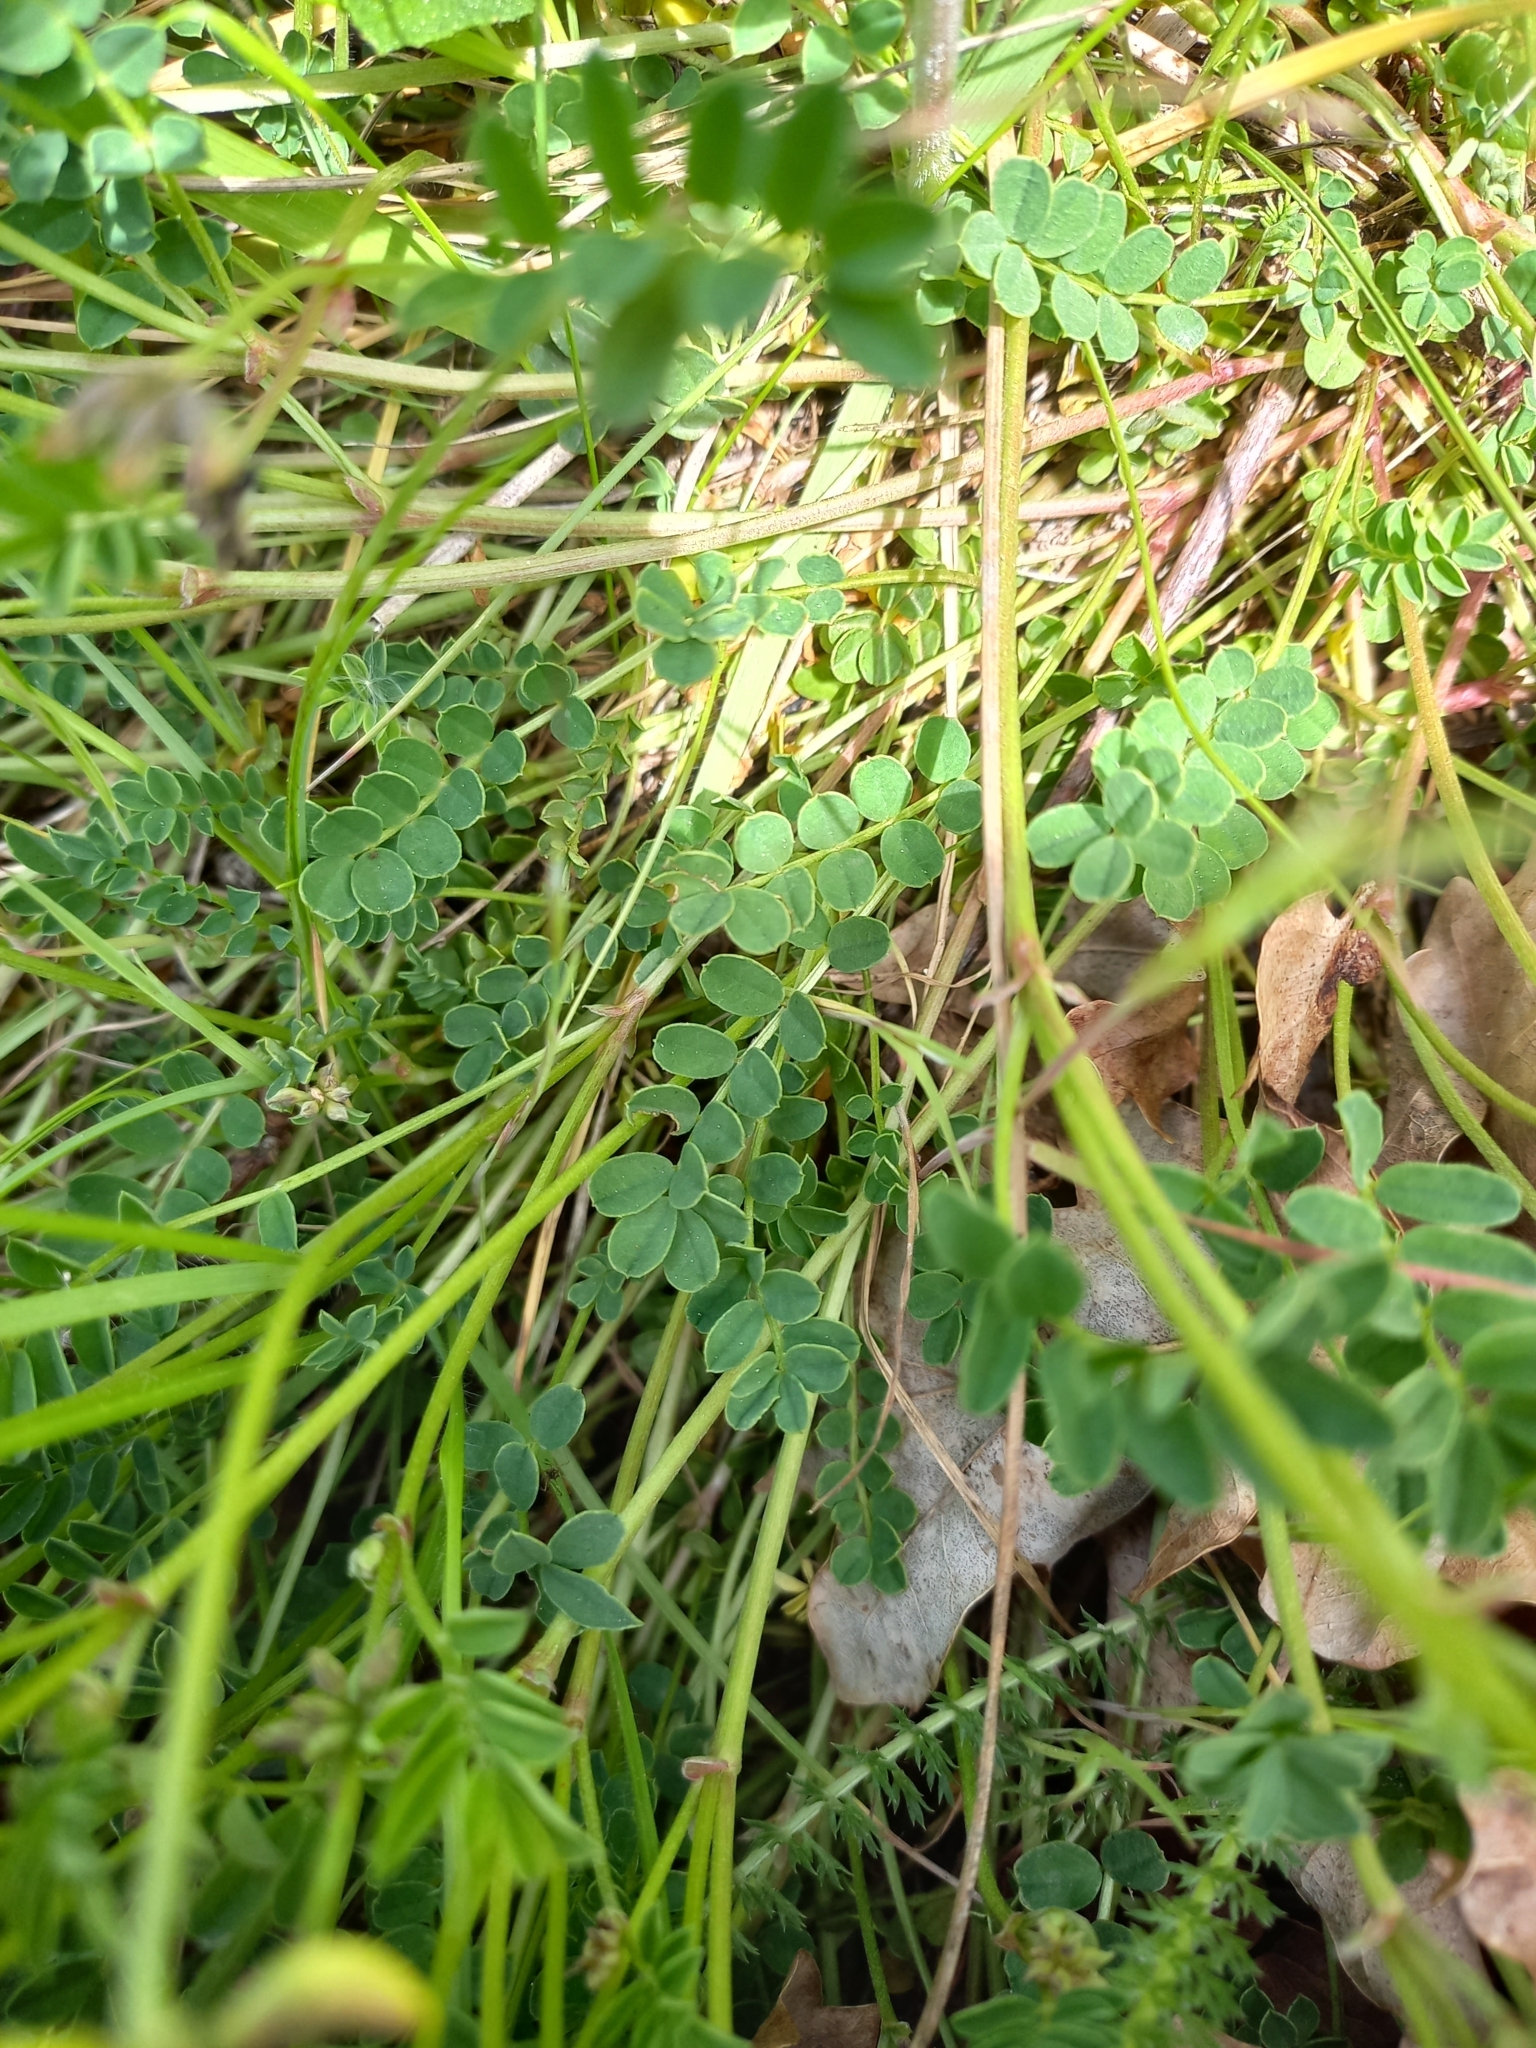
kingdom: Plantae
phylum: Tracheophyta
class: Magnoliopsida
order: Fabales
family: Fabaceae
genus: Hippocrepis
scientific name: Hippocrepis comosa
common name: Horseshoe vetch
